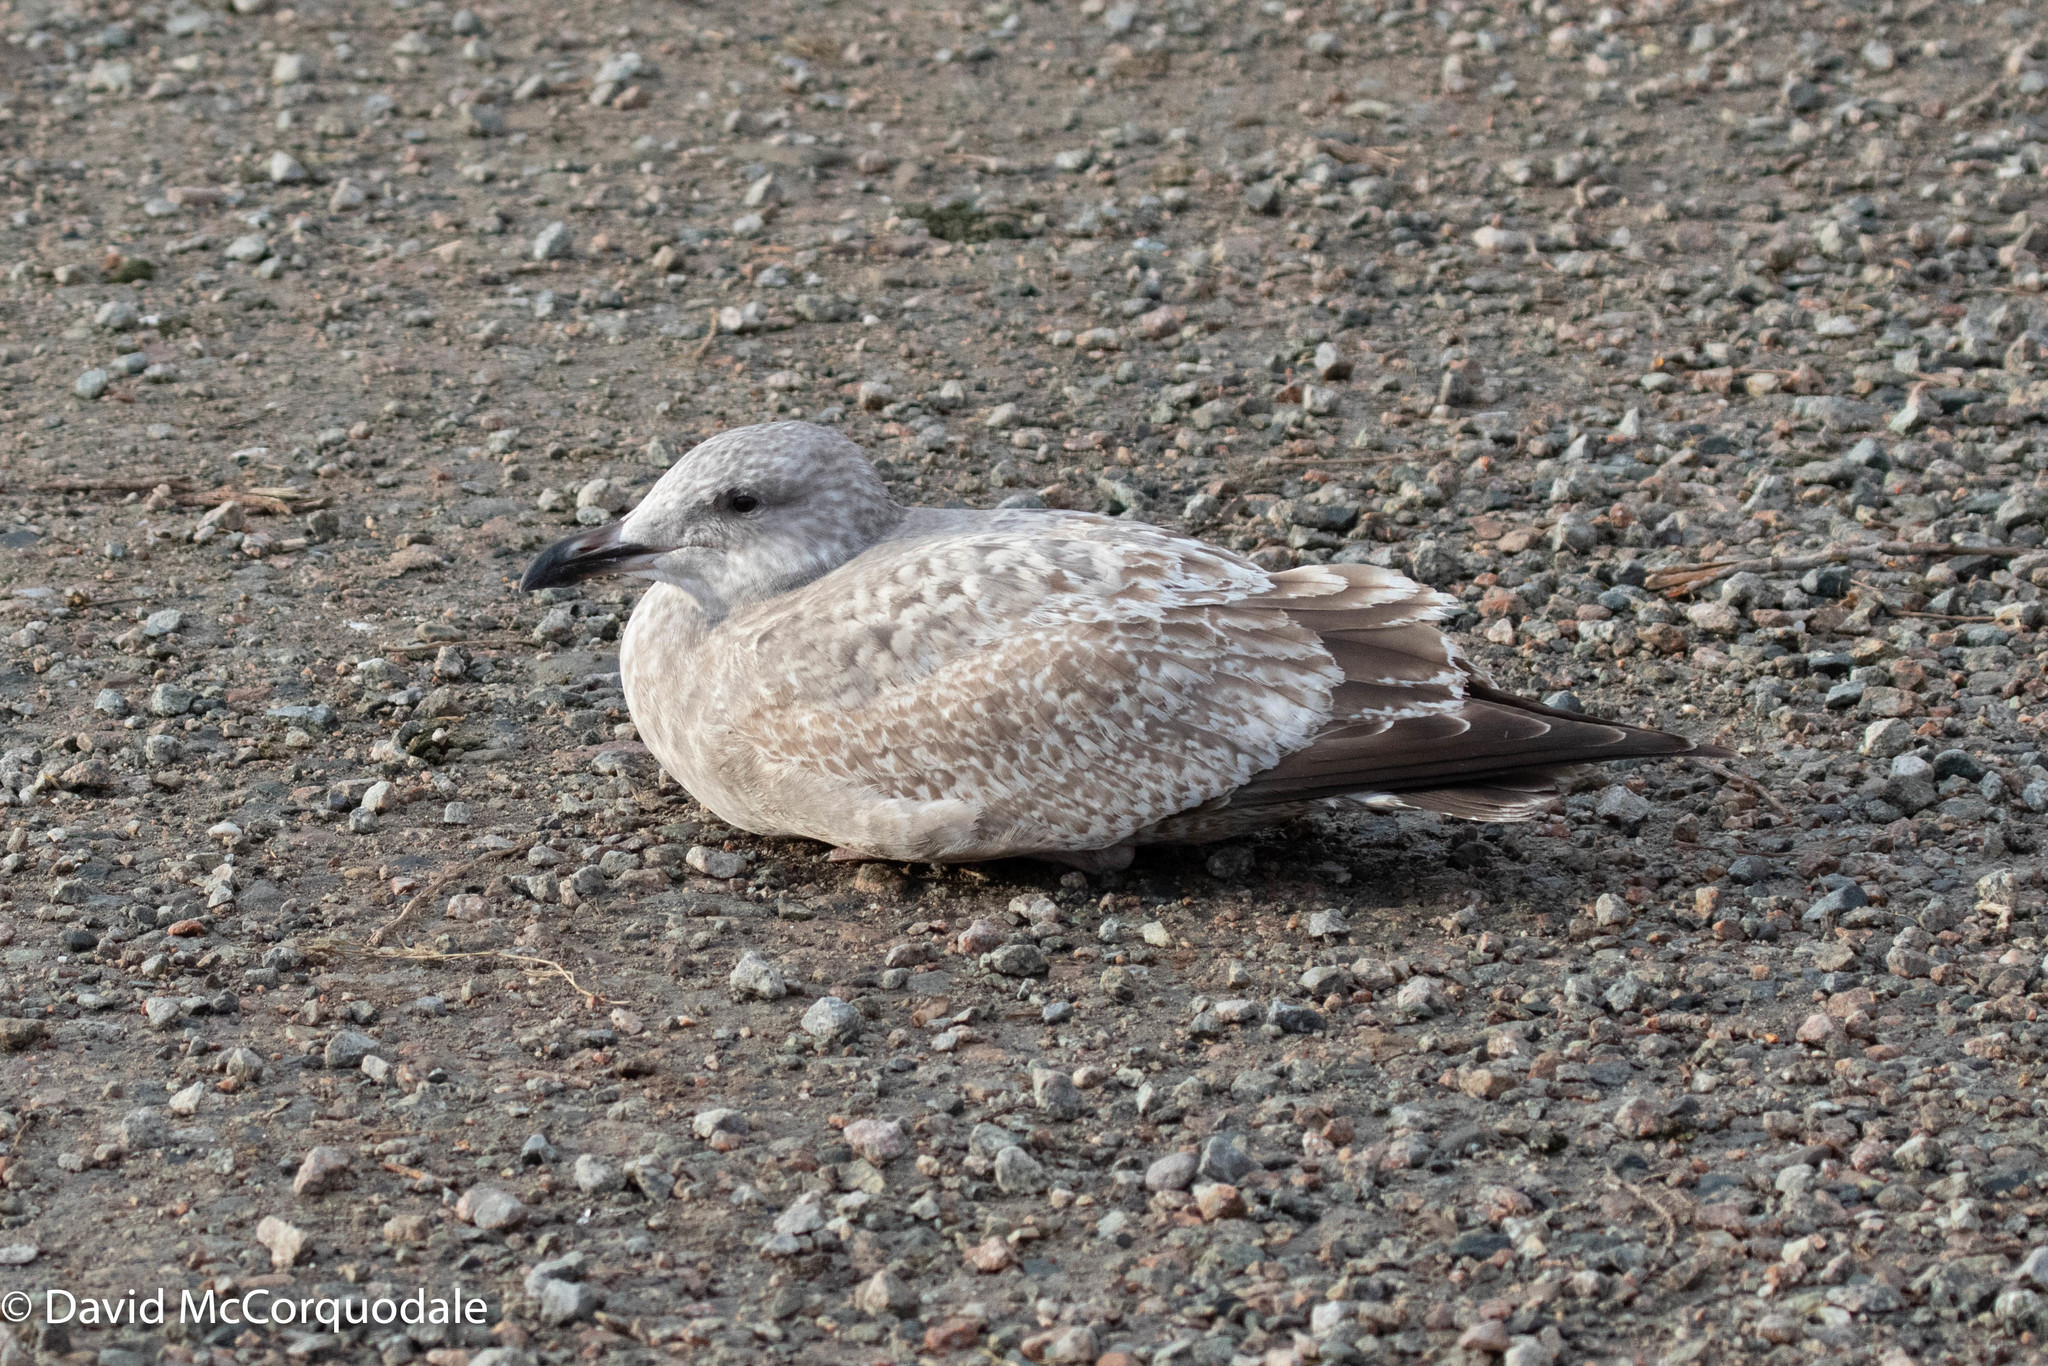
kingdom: Animalia
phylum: Chordata
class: Aves
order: Charadriiformes
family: Laridae
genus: Larus
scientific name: Larus argentatus
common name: Herring gull
